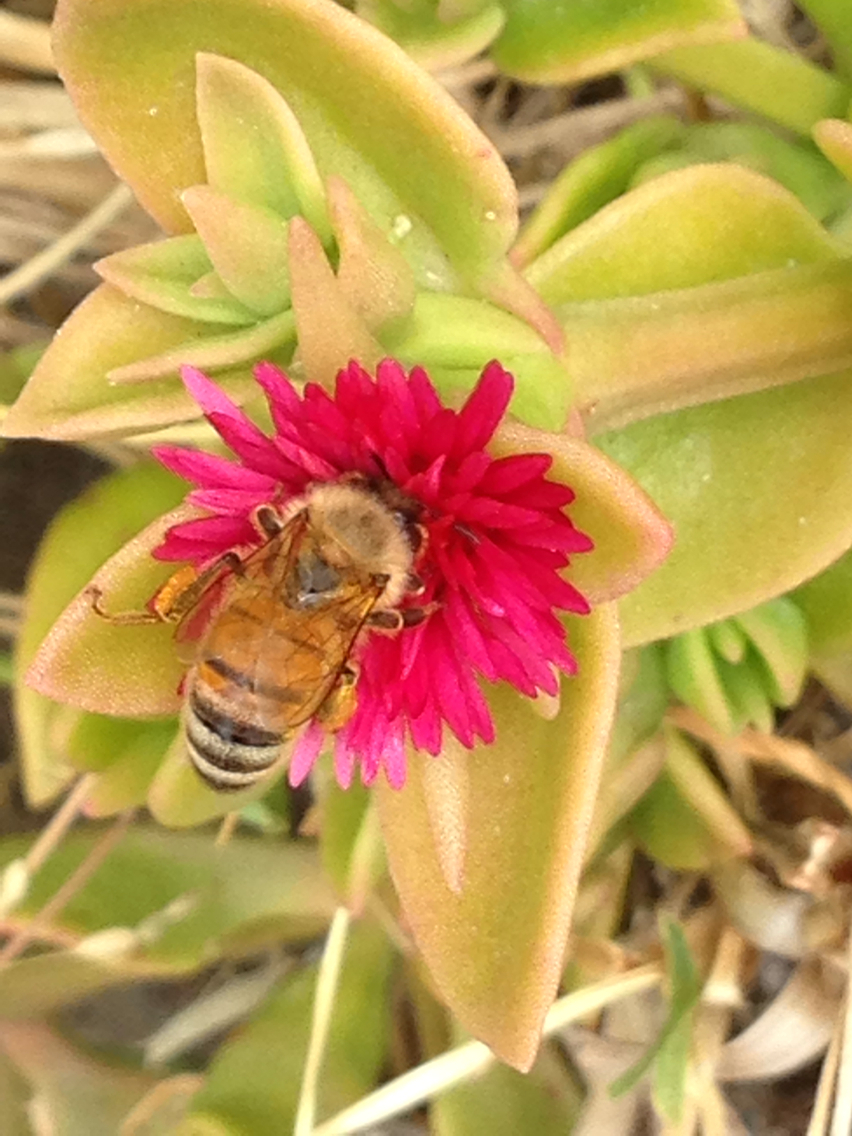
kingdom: Animalia
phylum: Arthropoda
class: Insecta
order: Hymenoptera
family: Apidae
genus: Apis
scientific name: Apis mellifera
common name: Honey bee
